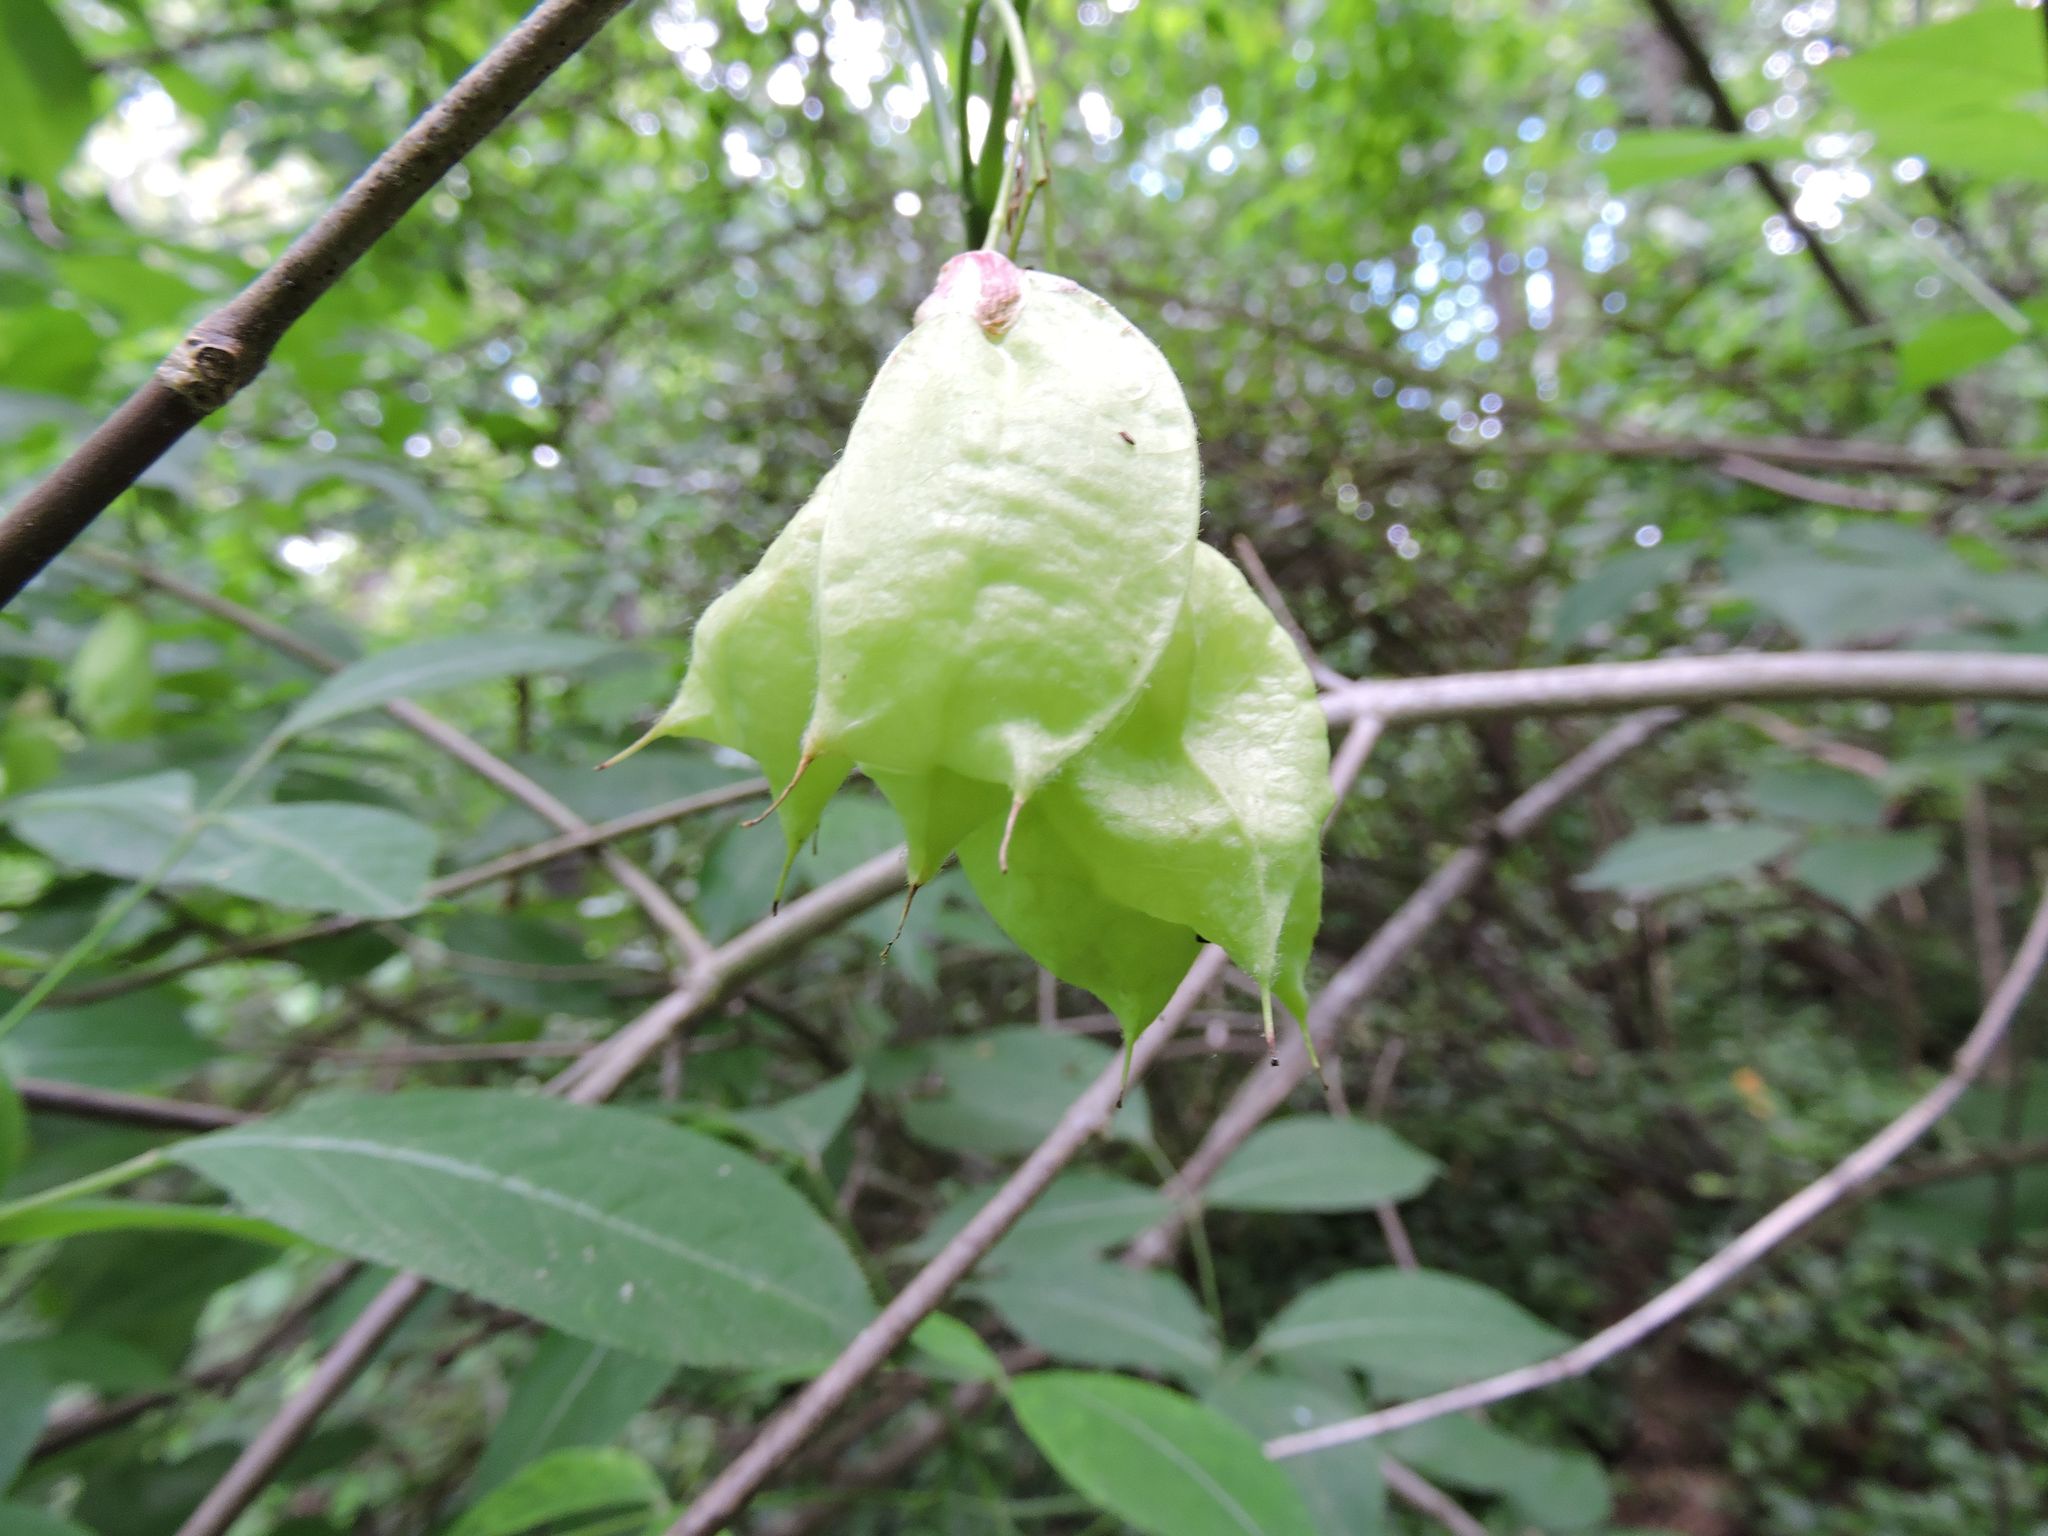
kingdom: Plantae
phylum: Tracheophyta
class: Magnoliopsida
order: Crossosomatales
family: Staphyleaceae
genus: Staphylea
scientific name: Staphylea trifolia
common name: American bladdernut
